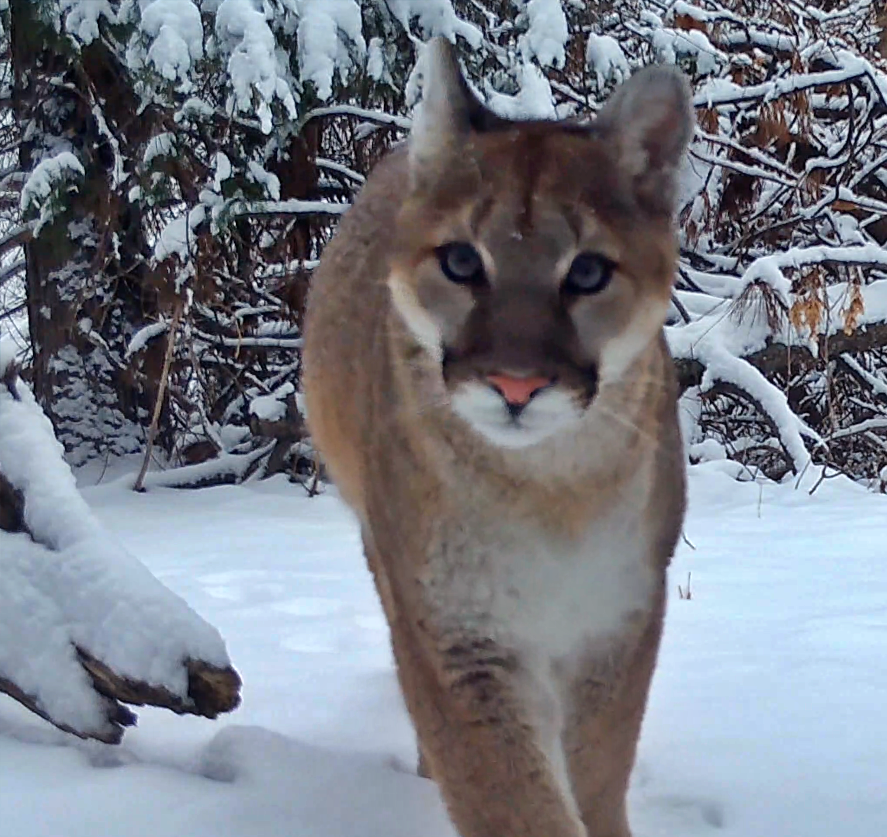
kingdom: Animalia
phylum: Chordata
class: Mammalia
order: Carnivora
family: Felidae
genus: Puma
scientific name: Puma concolor
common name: Puma
